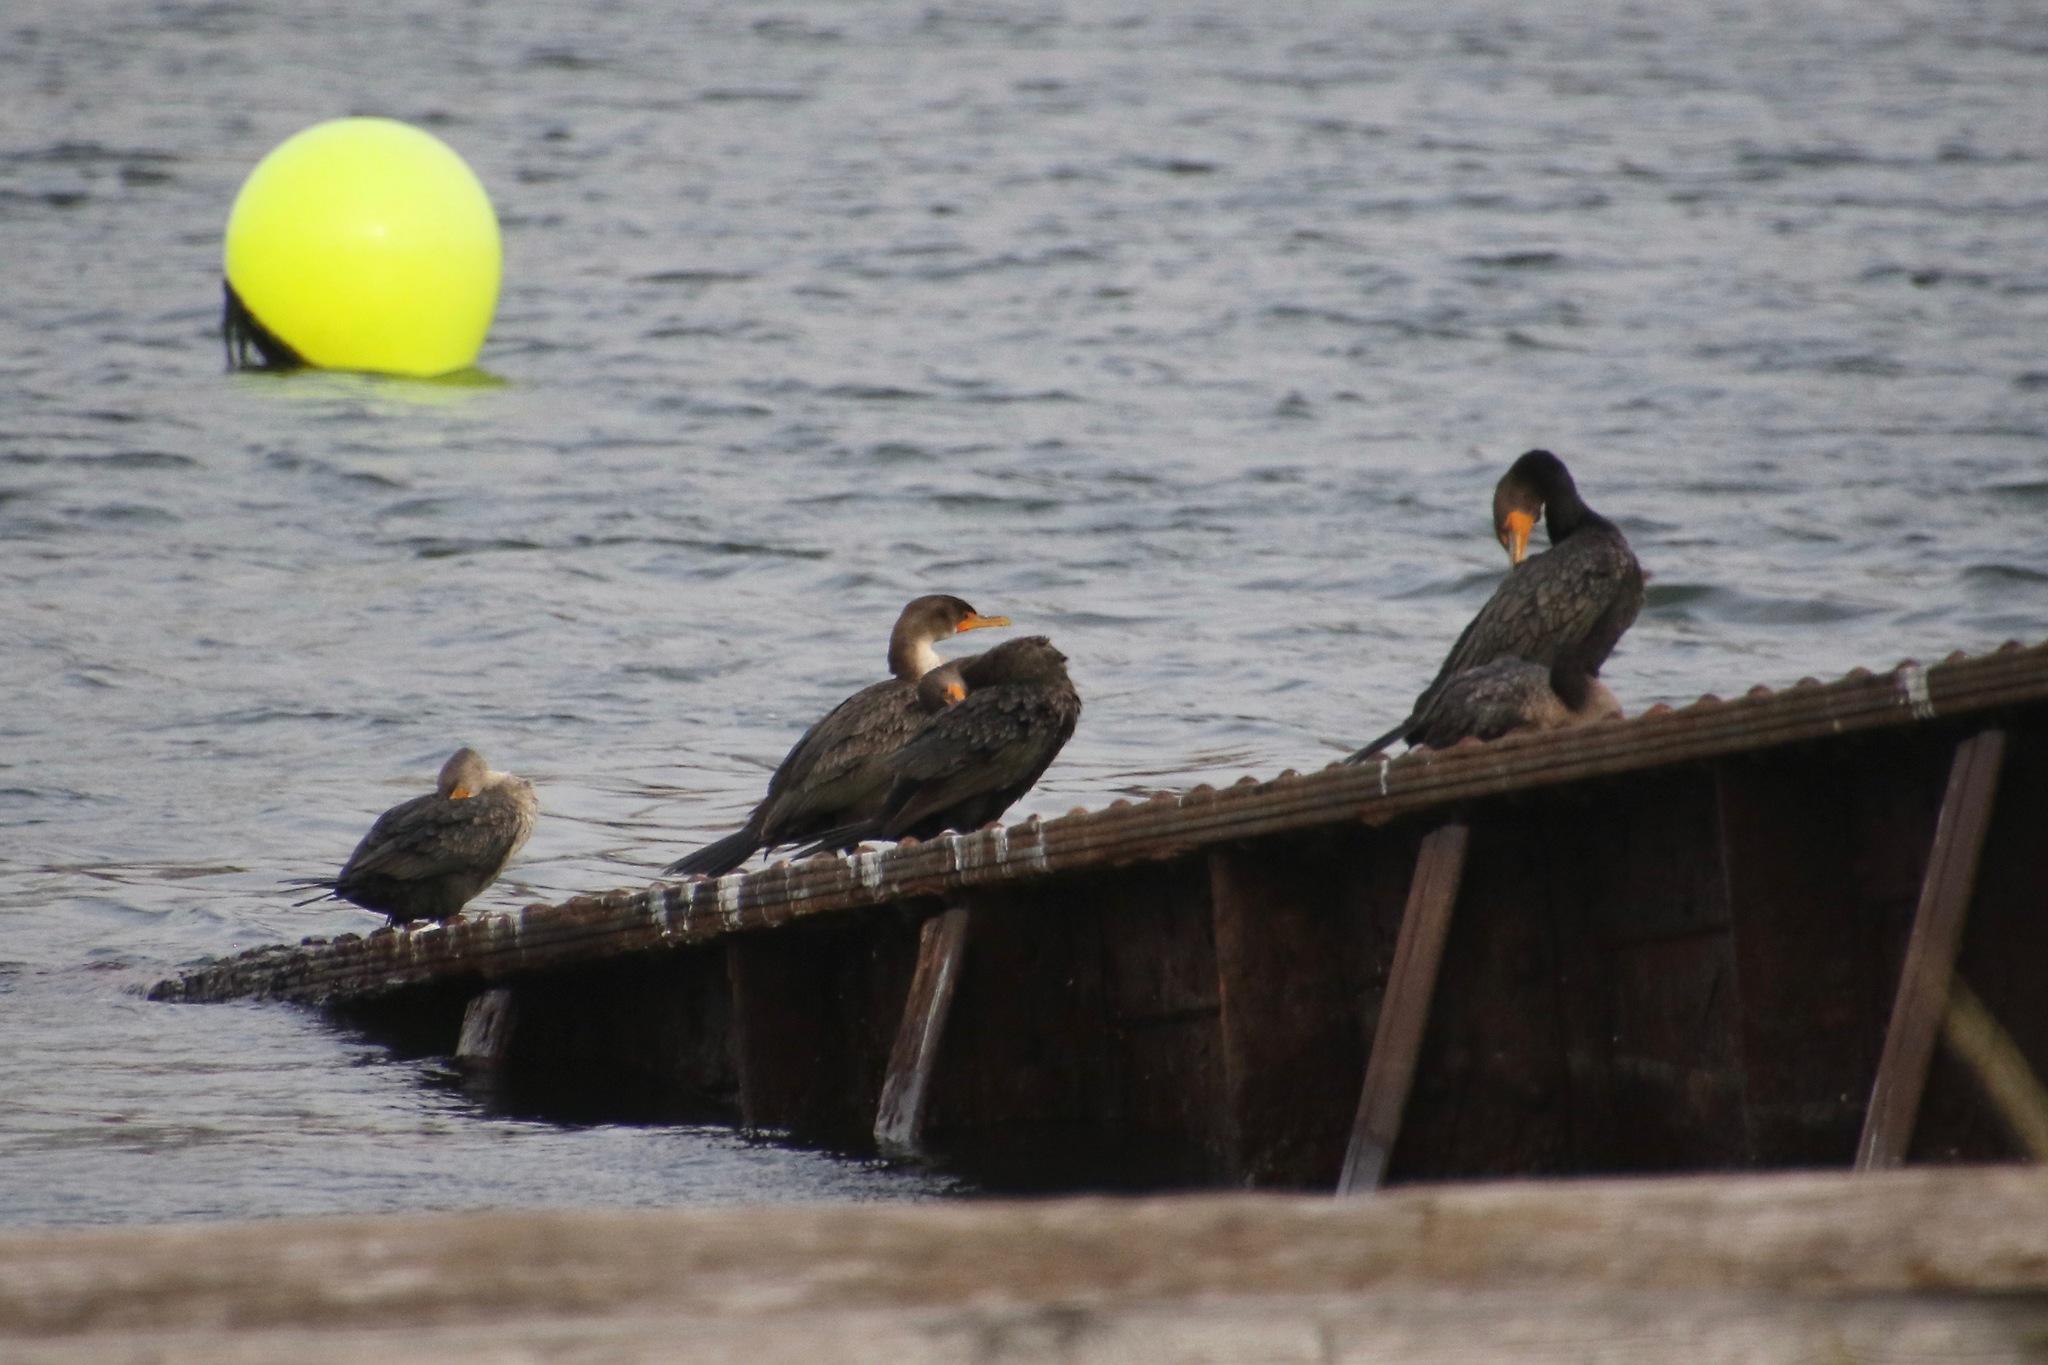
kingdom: Animalia
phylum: Chordata
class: Aves
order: Suliformes
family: Phalacrocoracidae
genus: Phalacrocorax
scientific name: Phalacrocorax auritus
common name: Double-crested cormorant
